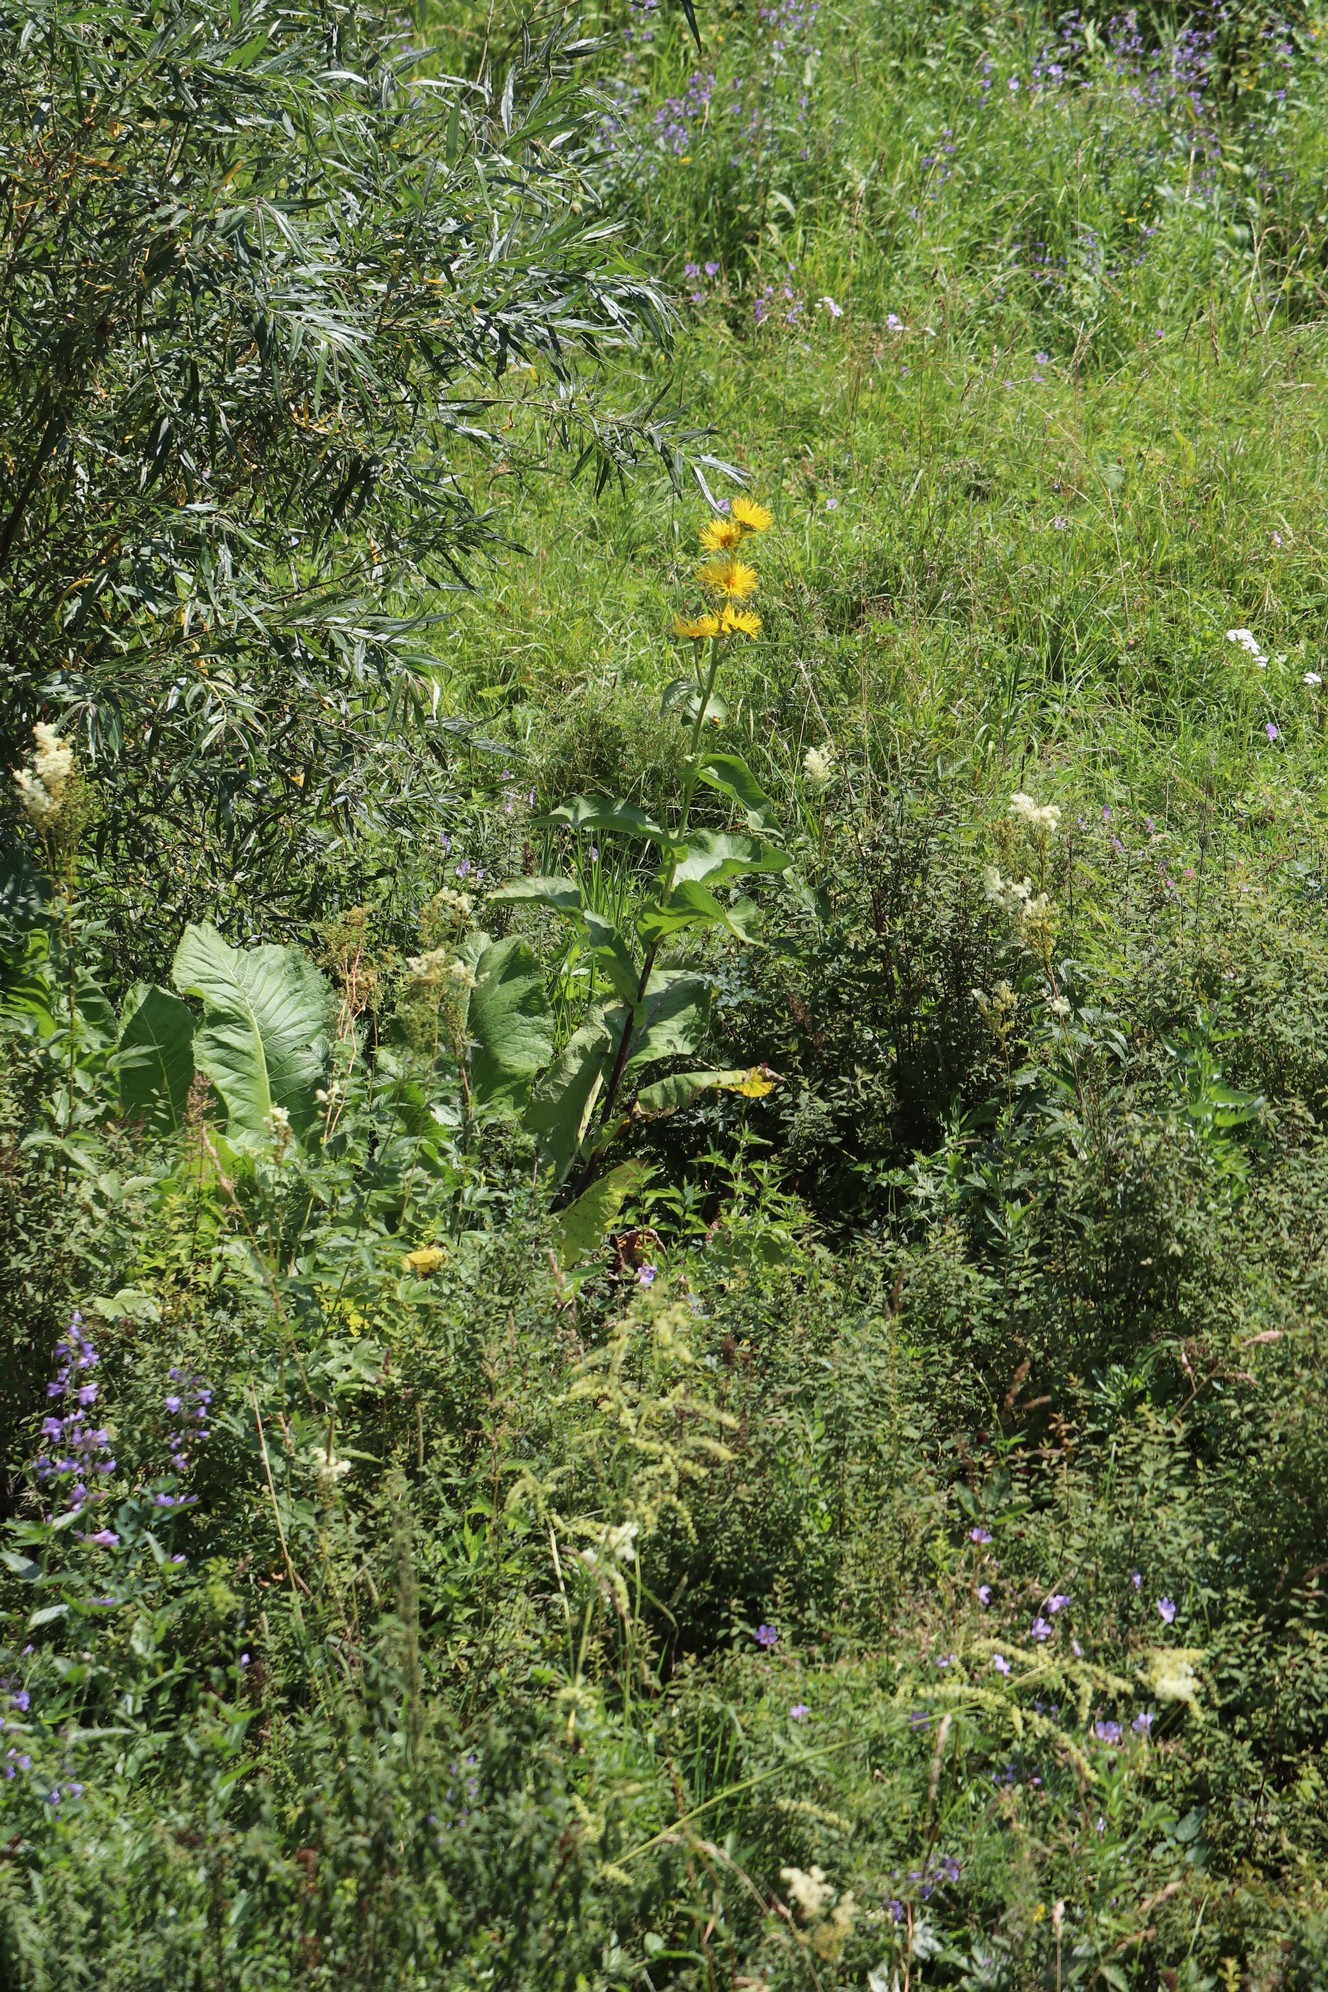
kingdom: Plantae
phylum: Tracheophyta
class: Magnoliopsida
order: Asterales
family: Asteraceae
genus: Inula
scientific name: Inula helenium
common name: Elecampane
